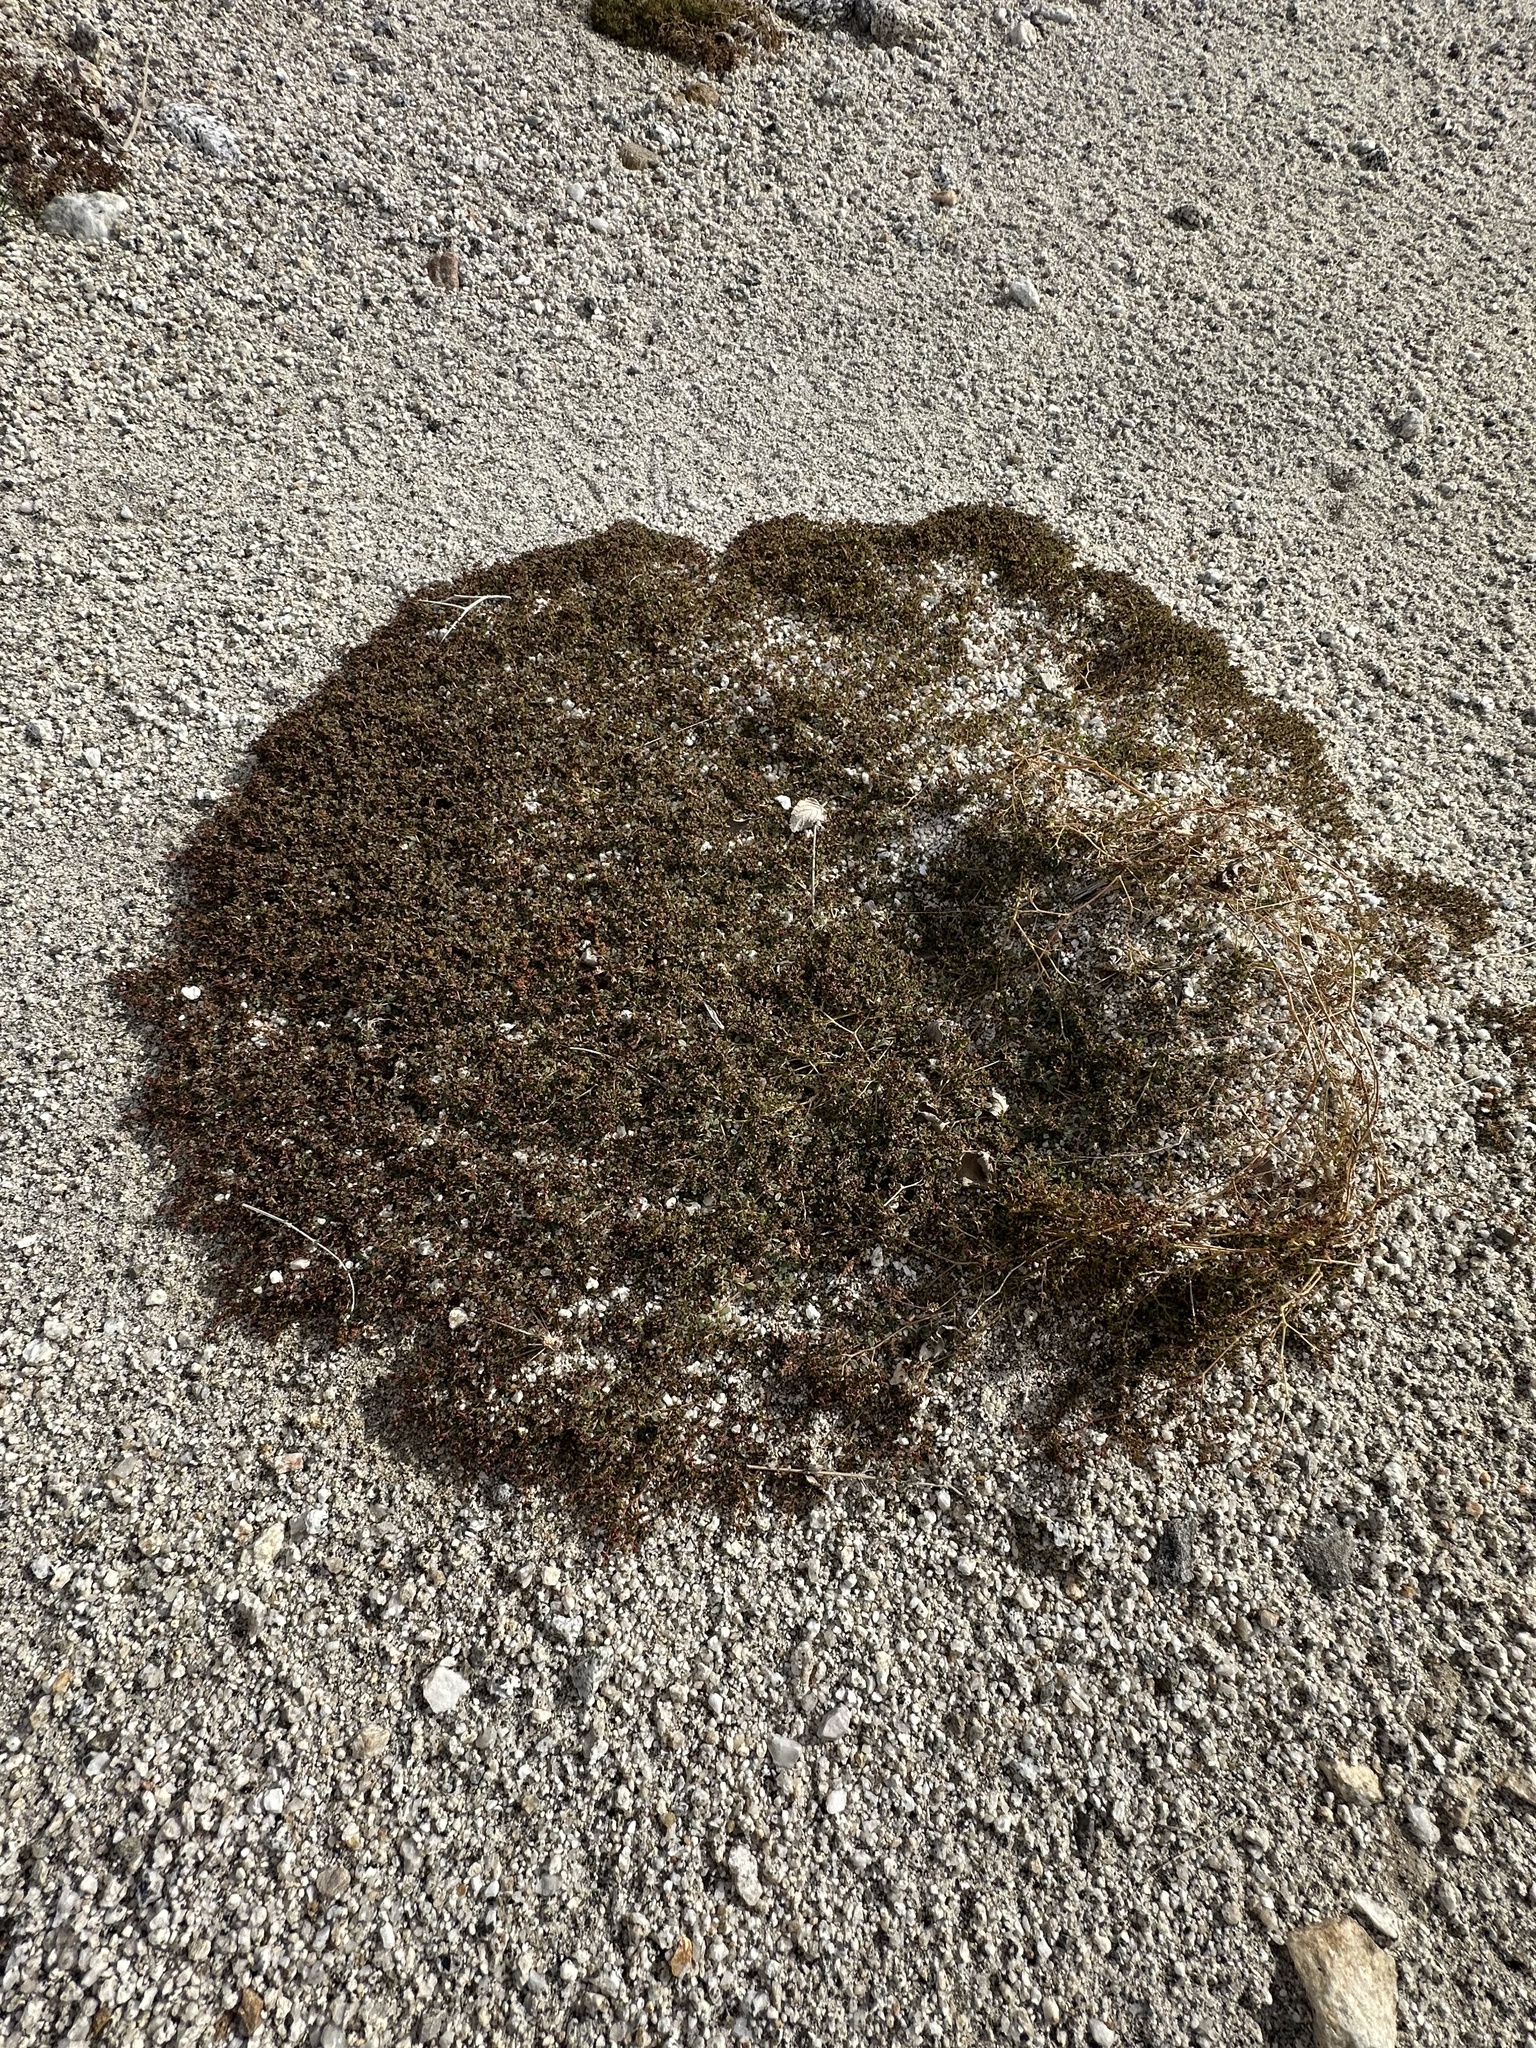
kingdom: Plantae
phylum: Tracheophyta
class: Magnoliopsida
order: Malpighiales
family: Euphorbiaceae
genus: Euphorbia
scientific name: Euphorbia polycarpa
